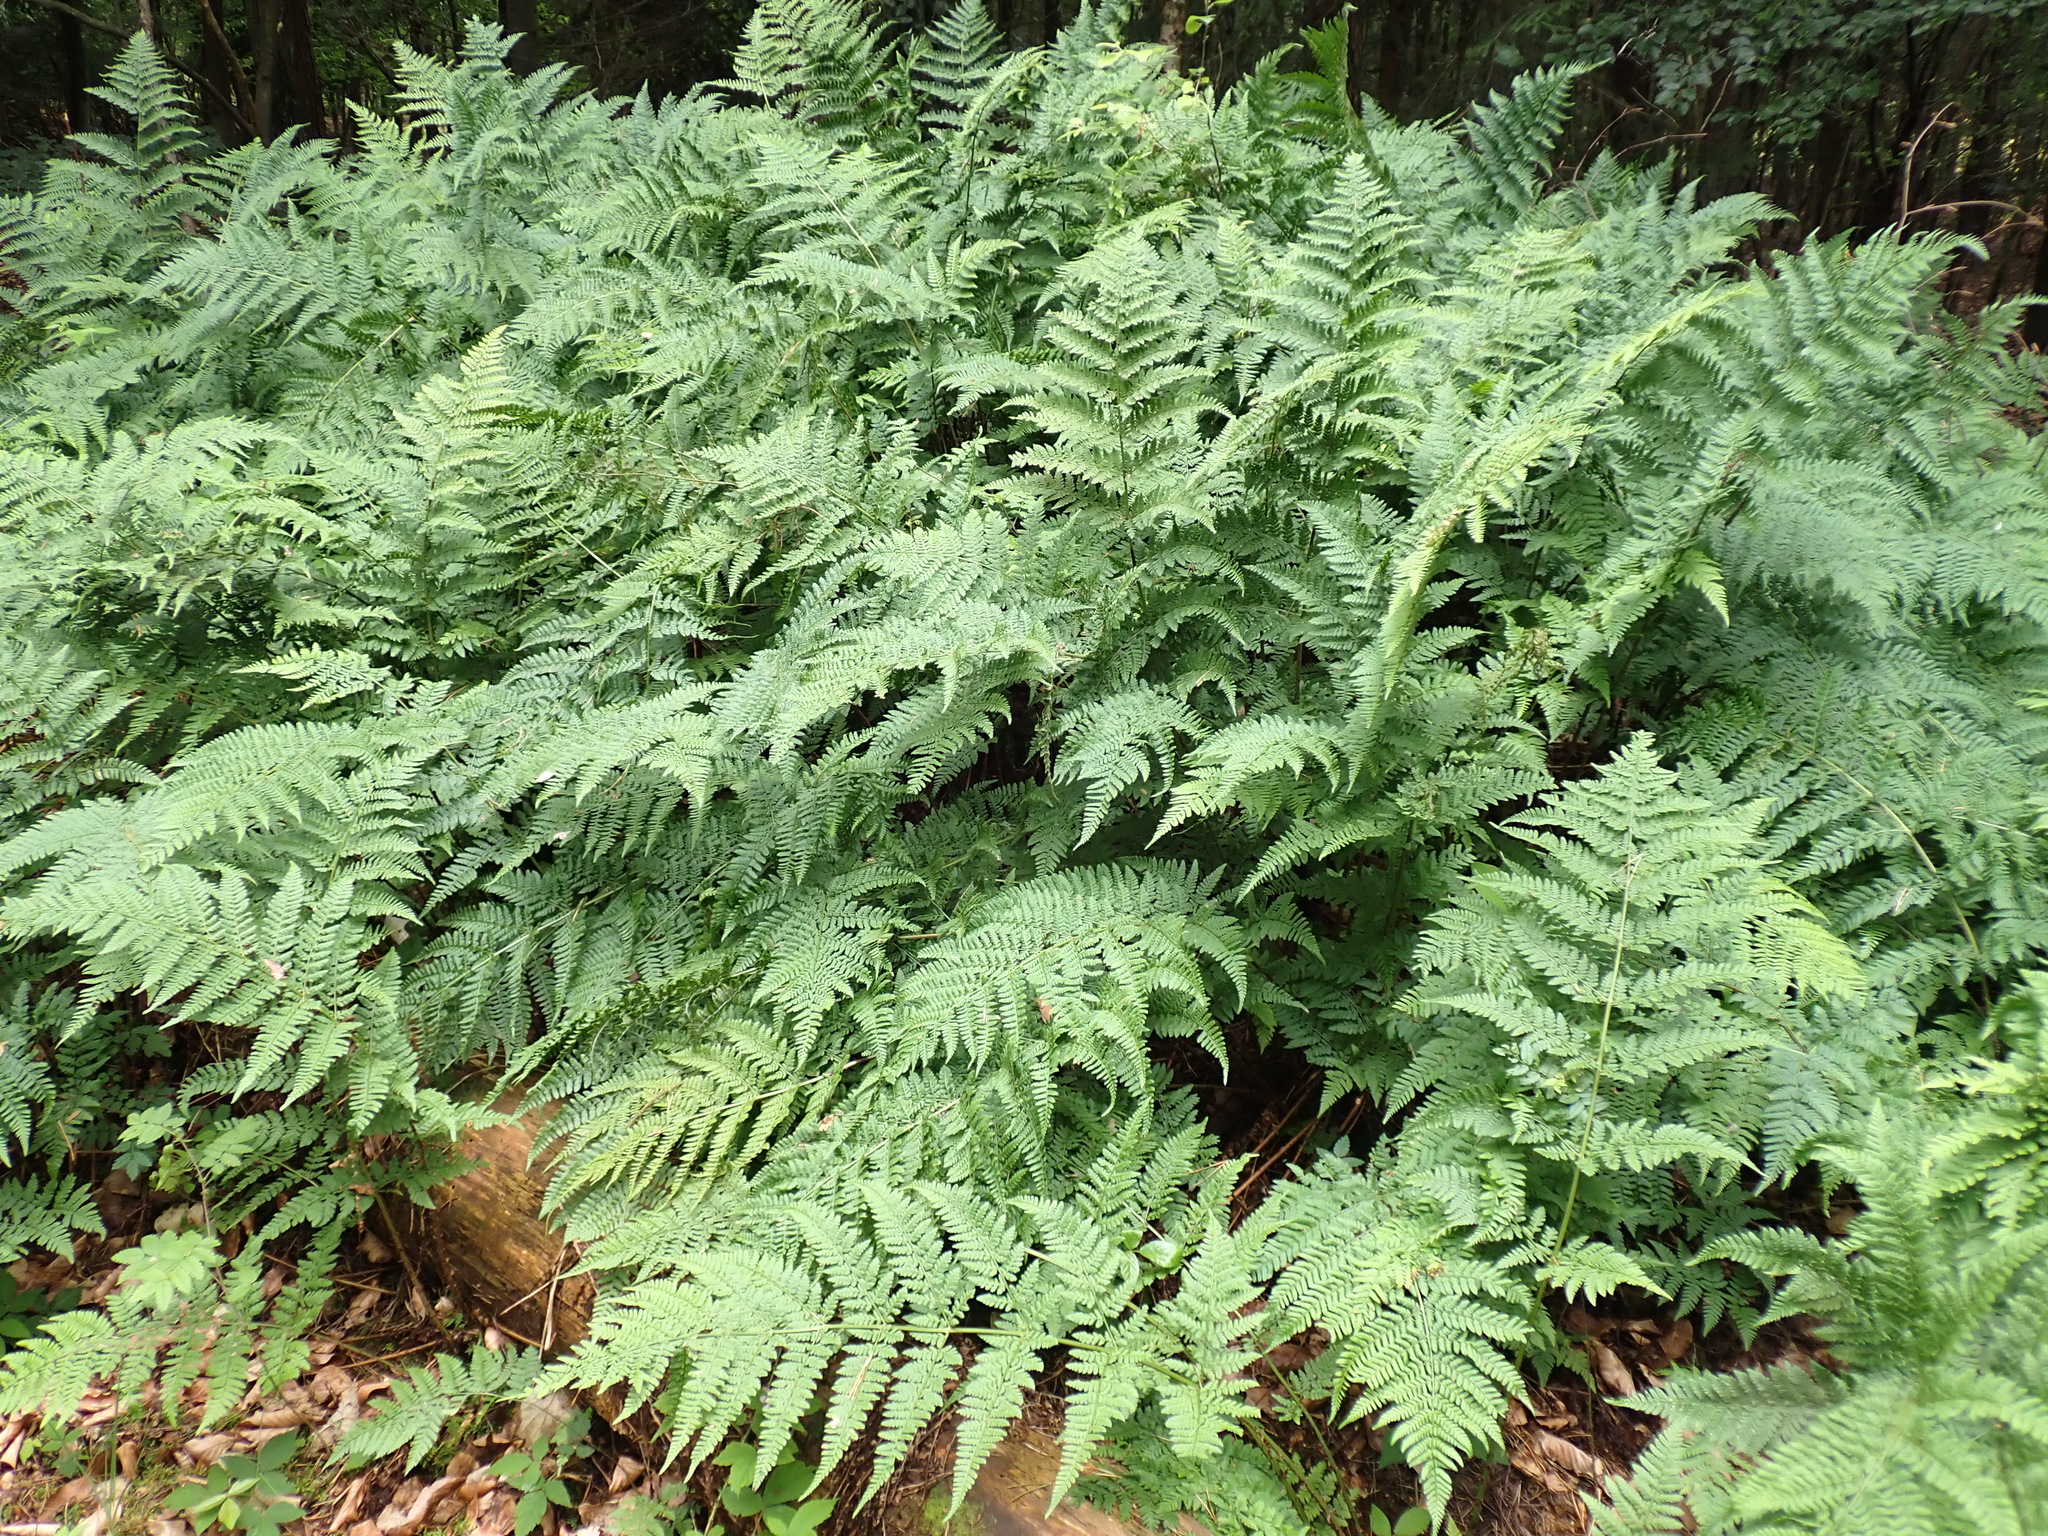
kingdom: Plantae
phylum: Tracheophyta
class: Polypodiopsida
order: Polypodiales
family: Dryopteridaceae
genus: Dryopteris
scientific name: Dryopteris dilatata
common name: Broad buckler-fern
